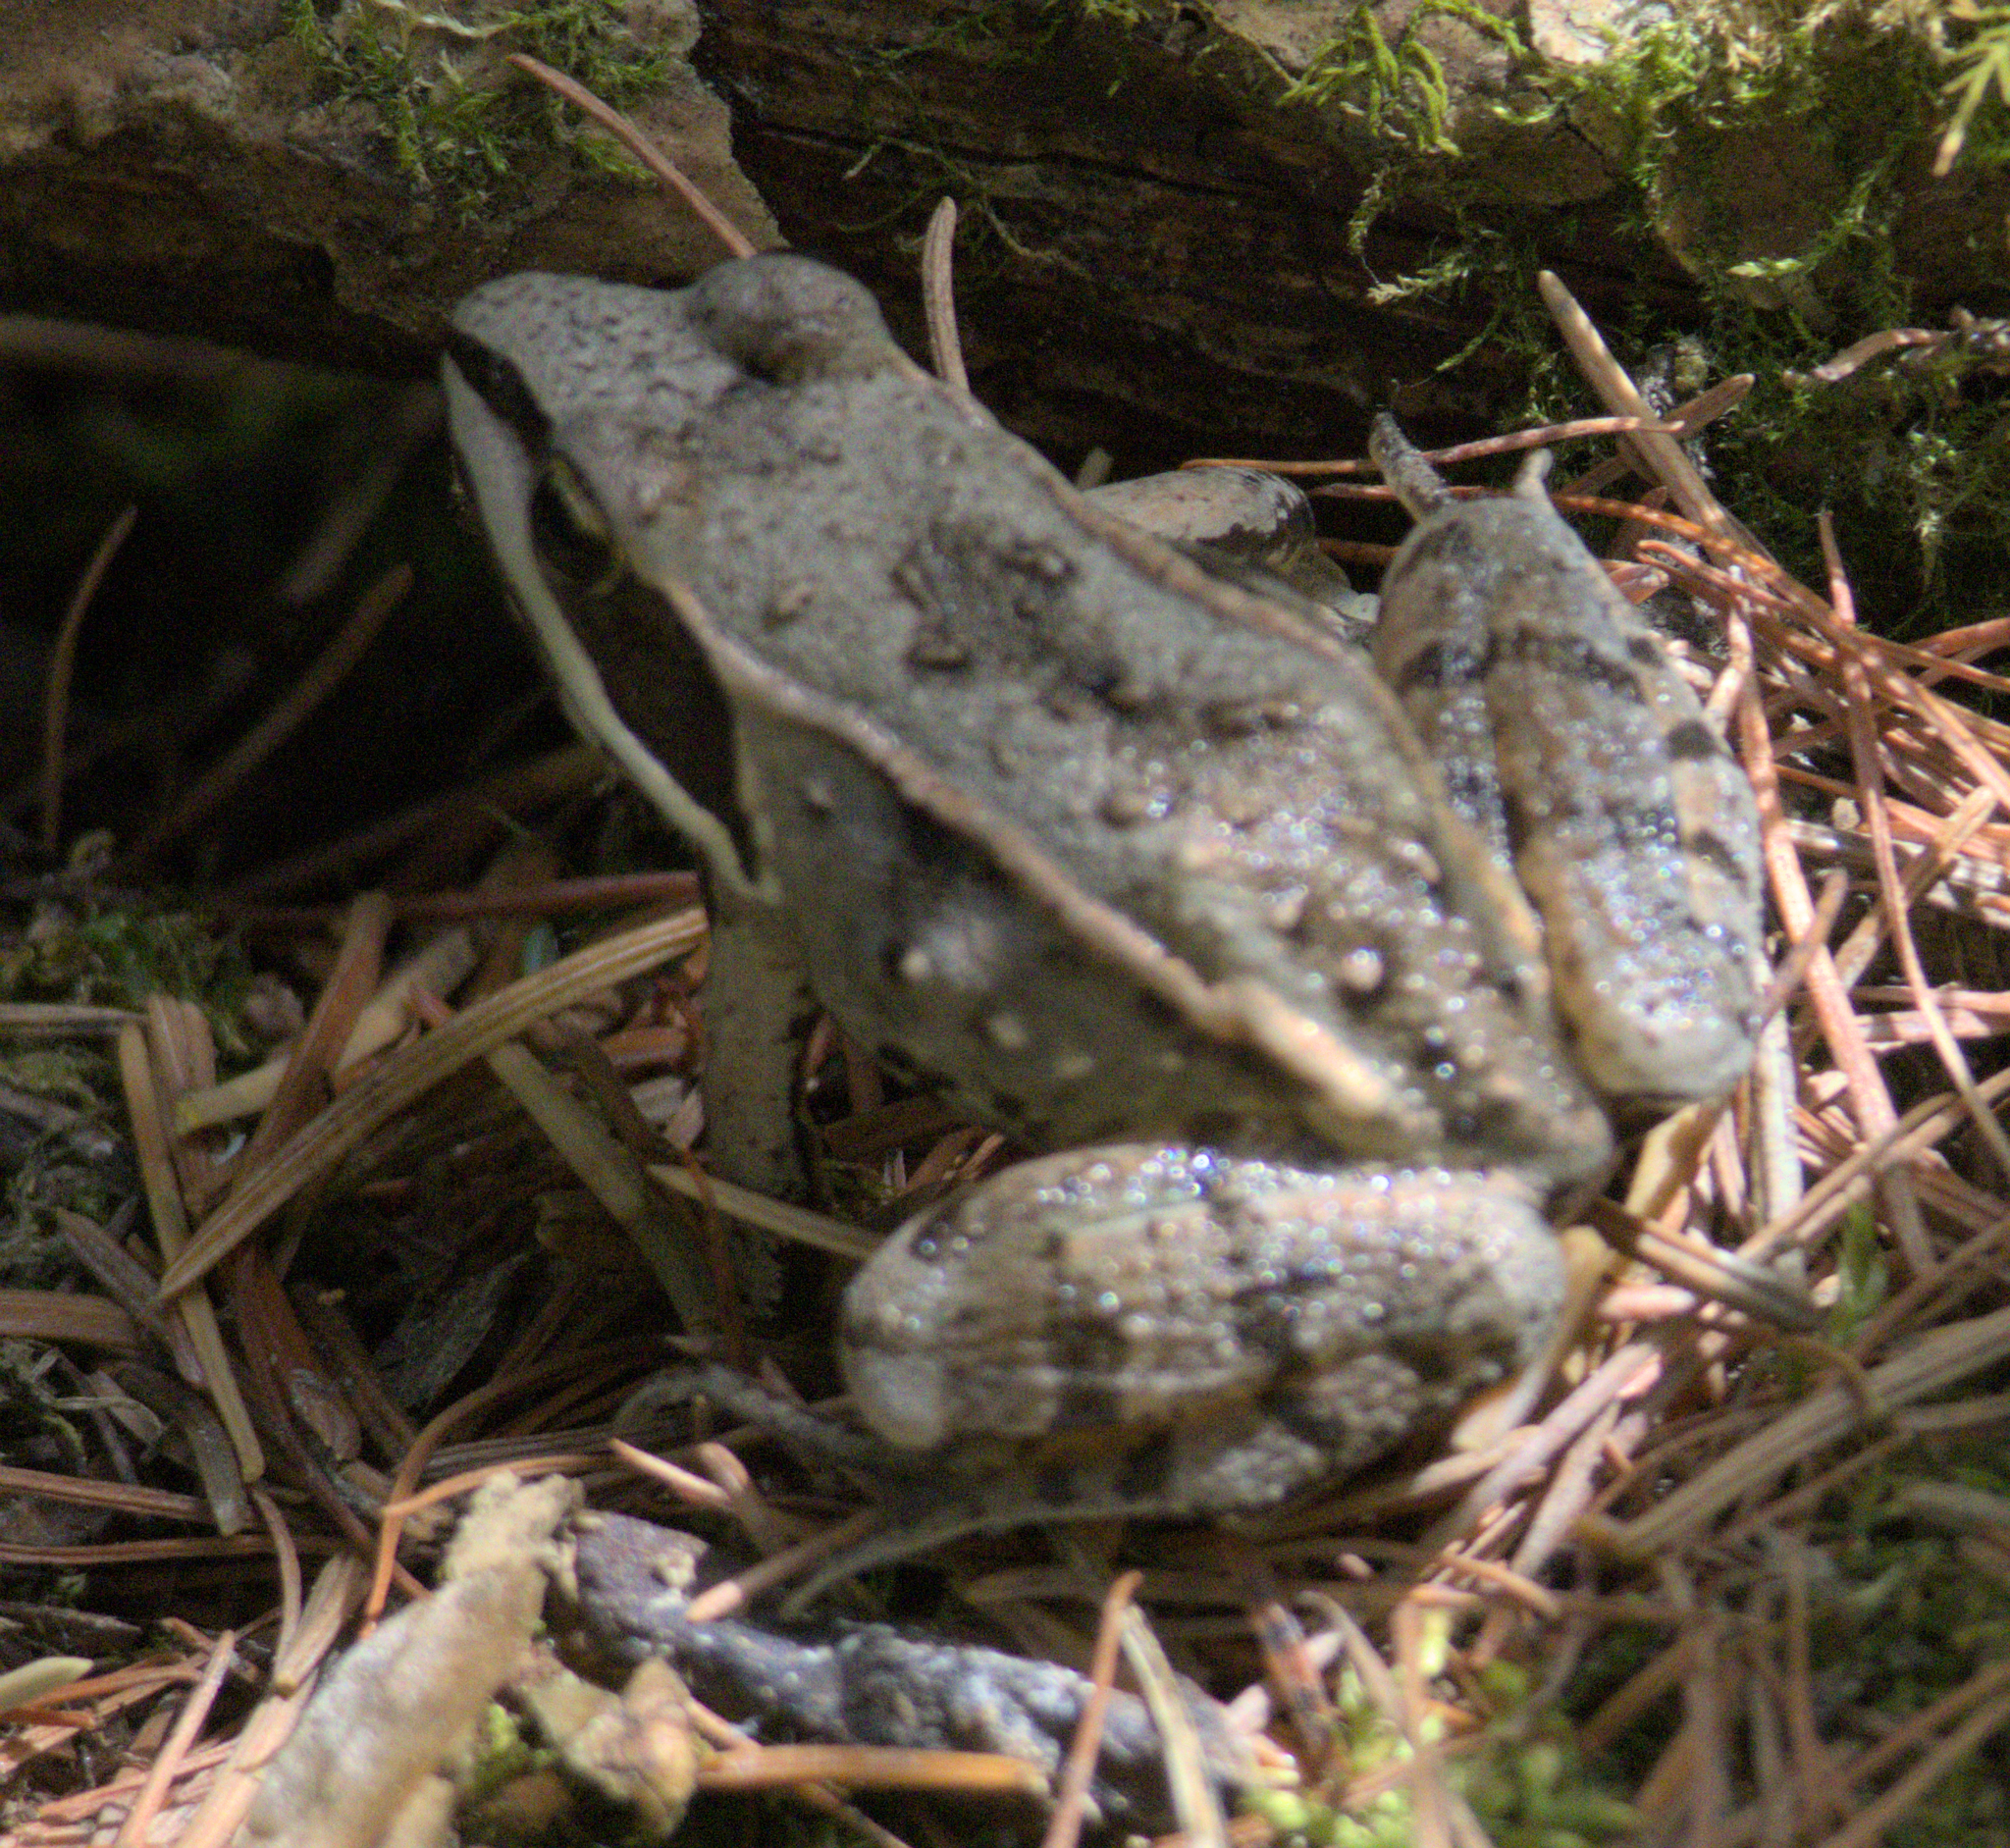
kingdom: Animalia
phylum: Chordata
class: Amphibia
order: Anura
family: Ranidae
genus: Lithobates
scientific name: Lithobates sylvaticus
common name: Wood frog
